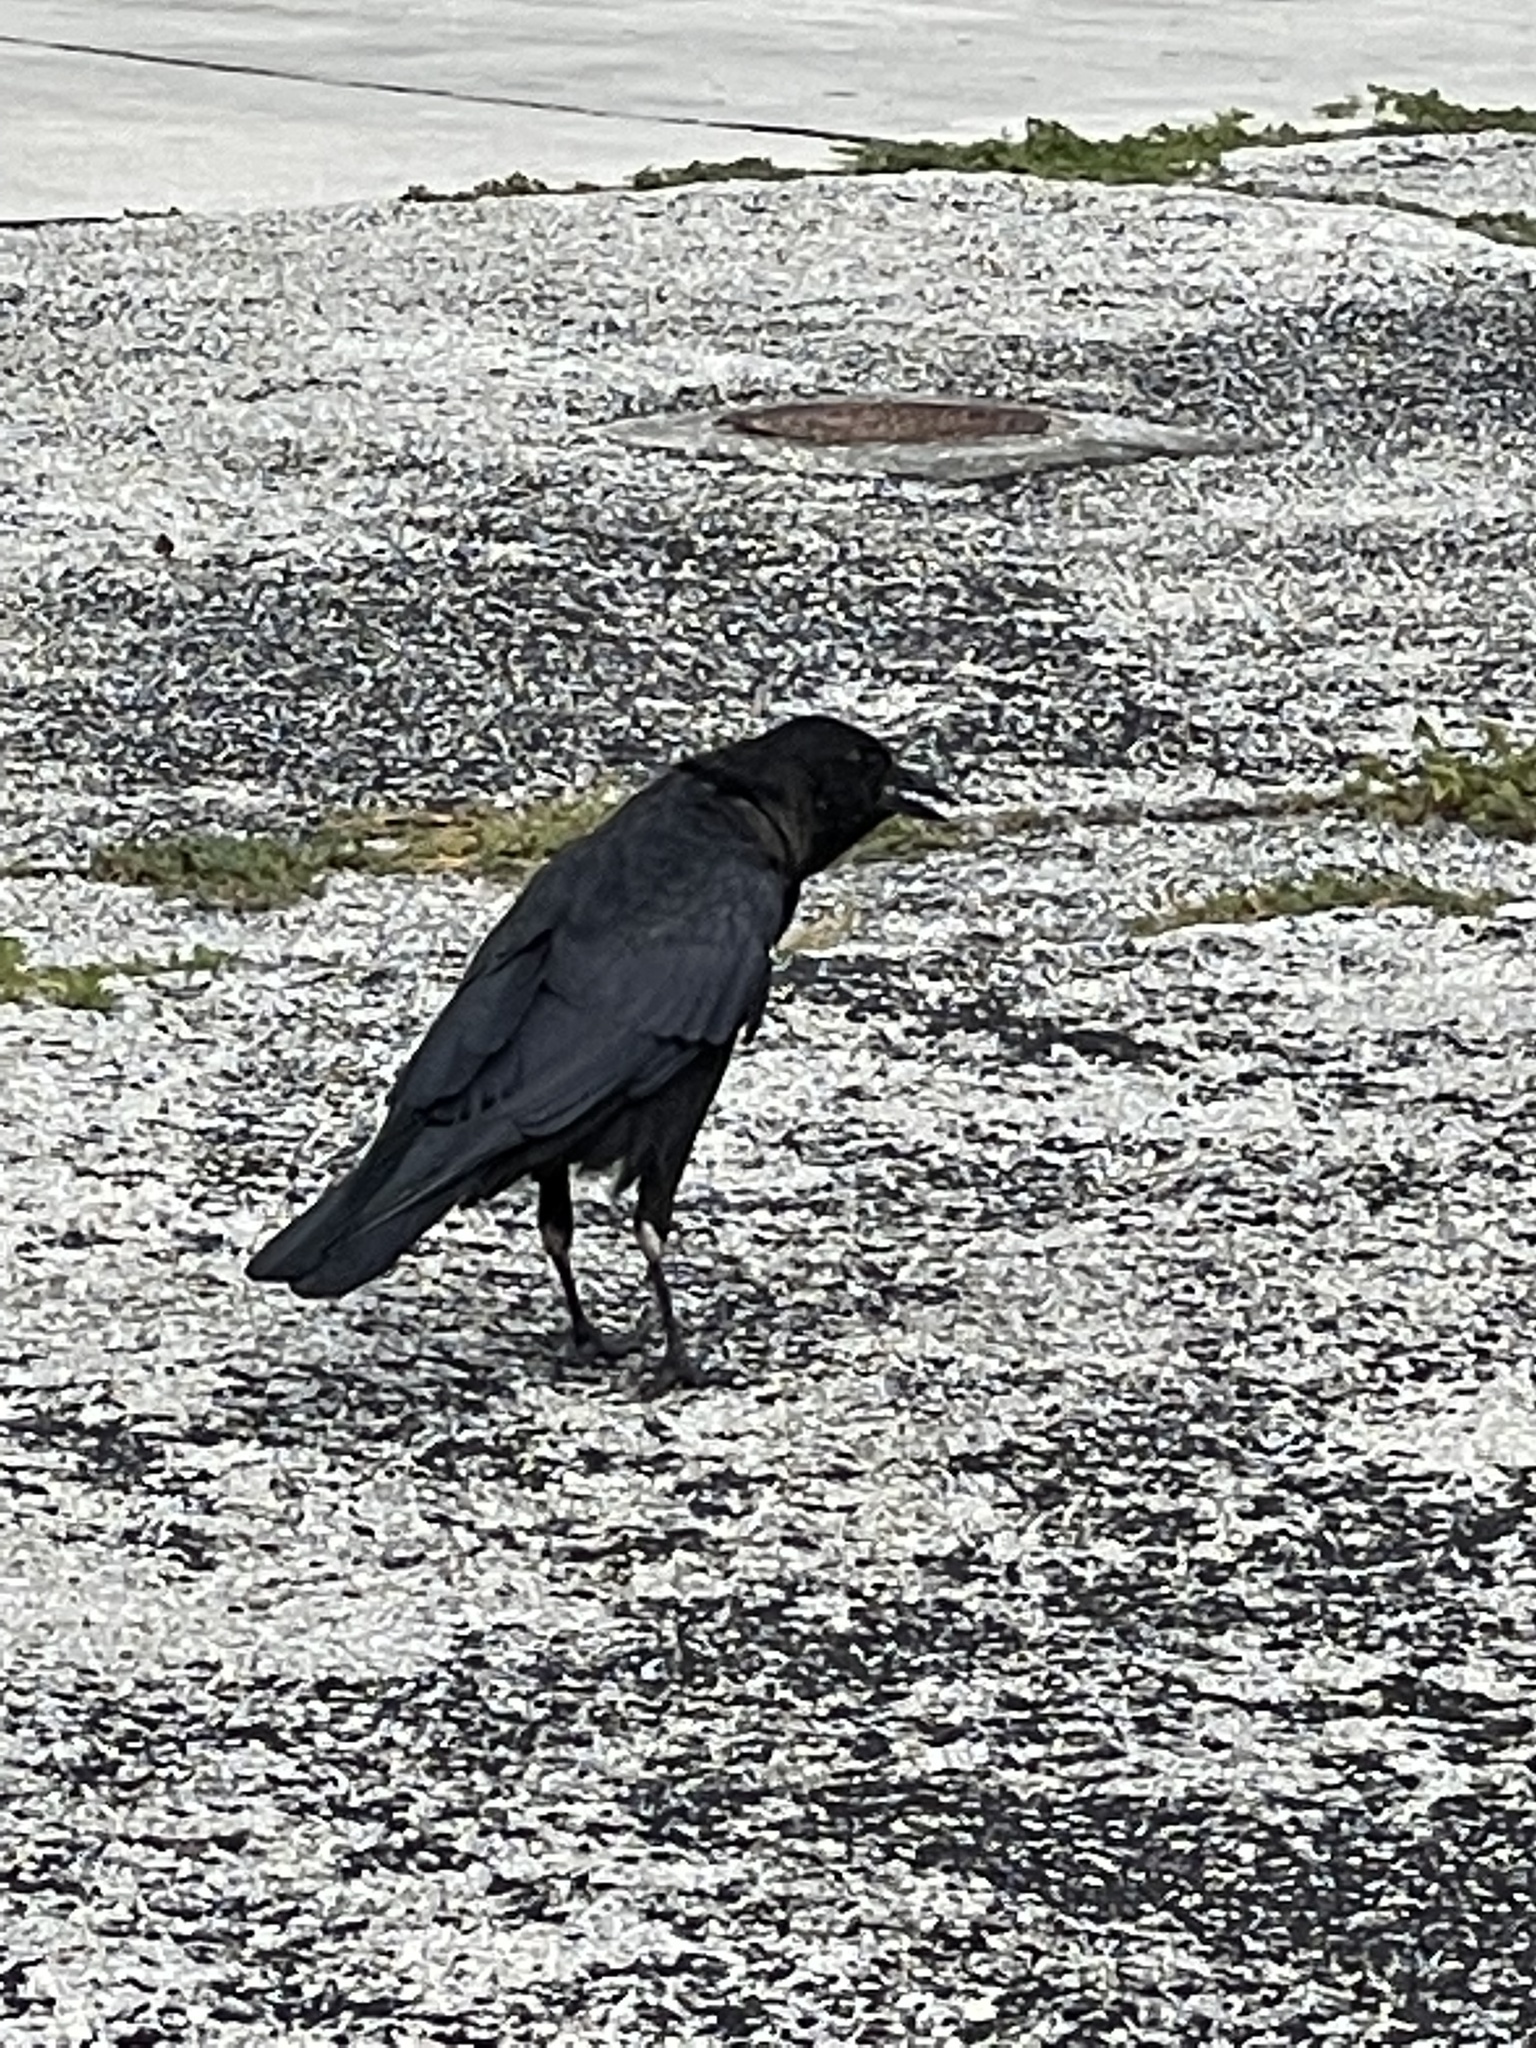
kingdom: Animalia
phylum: Chordata
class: Aves
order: Passeriformes
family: Corvidae
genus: Corvus
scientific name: Corvus brachyrhynchos
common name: American crow
